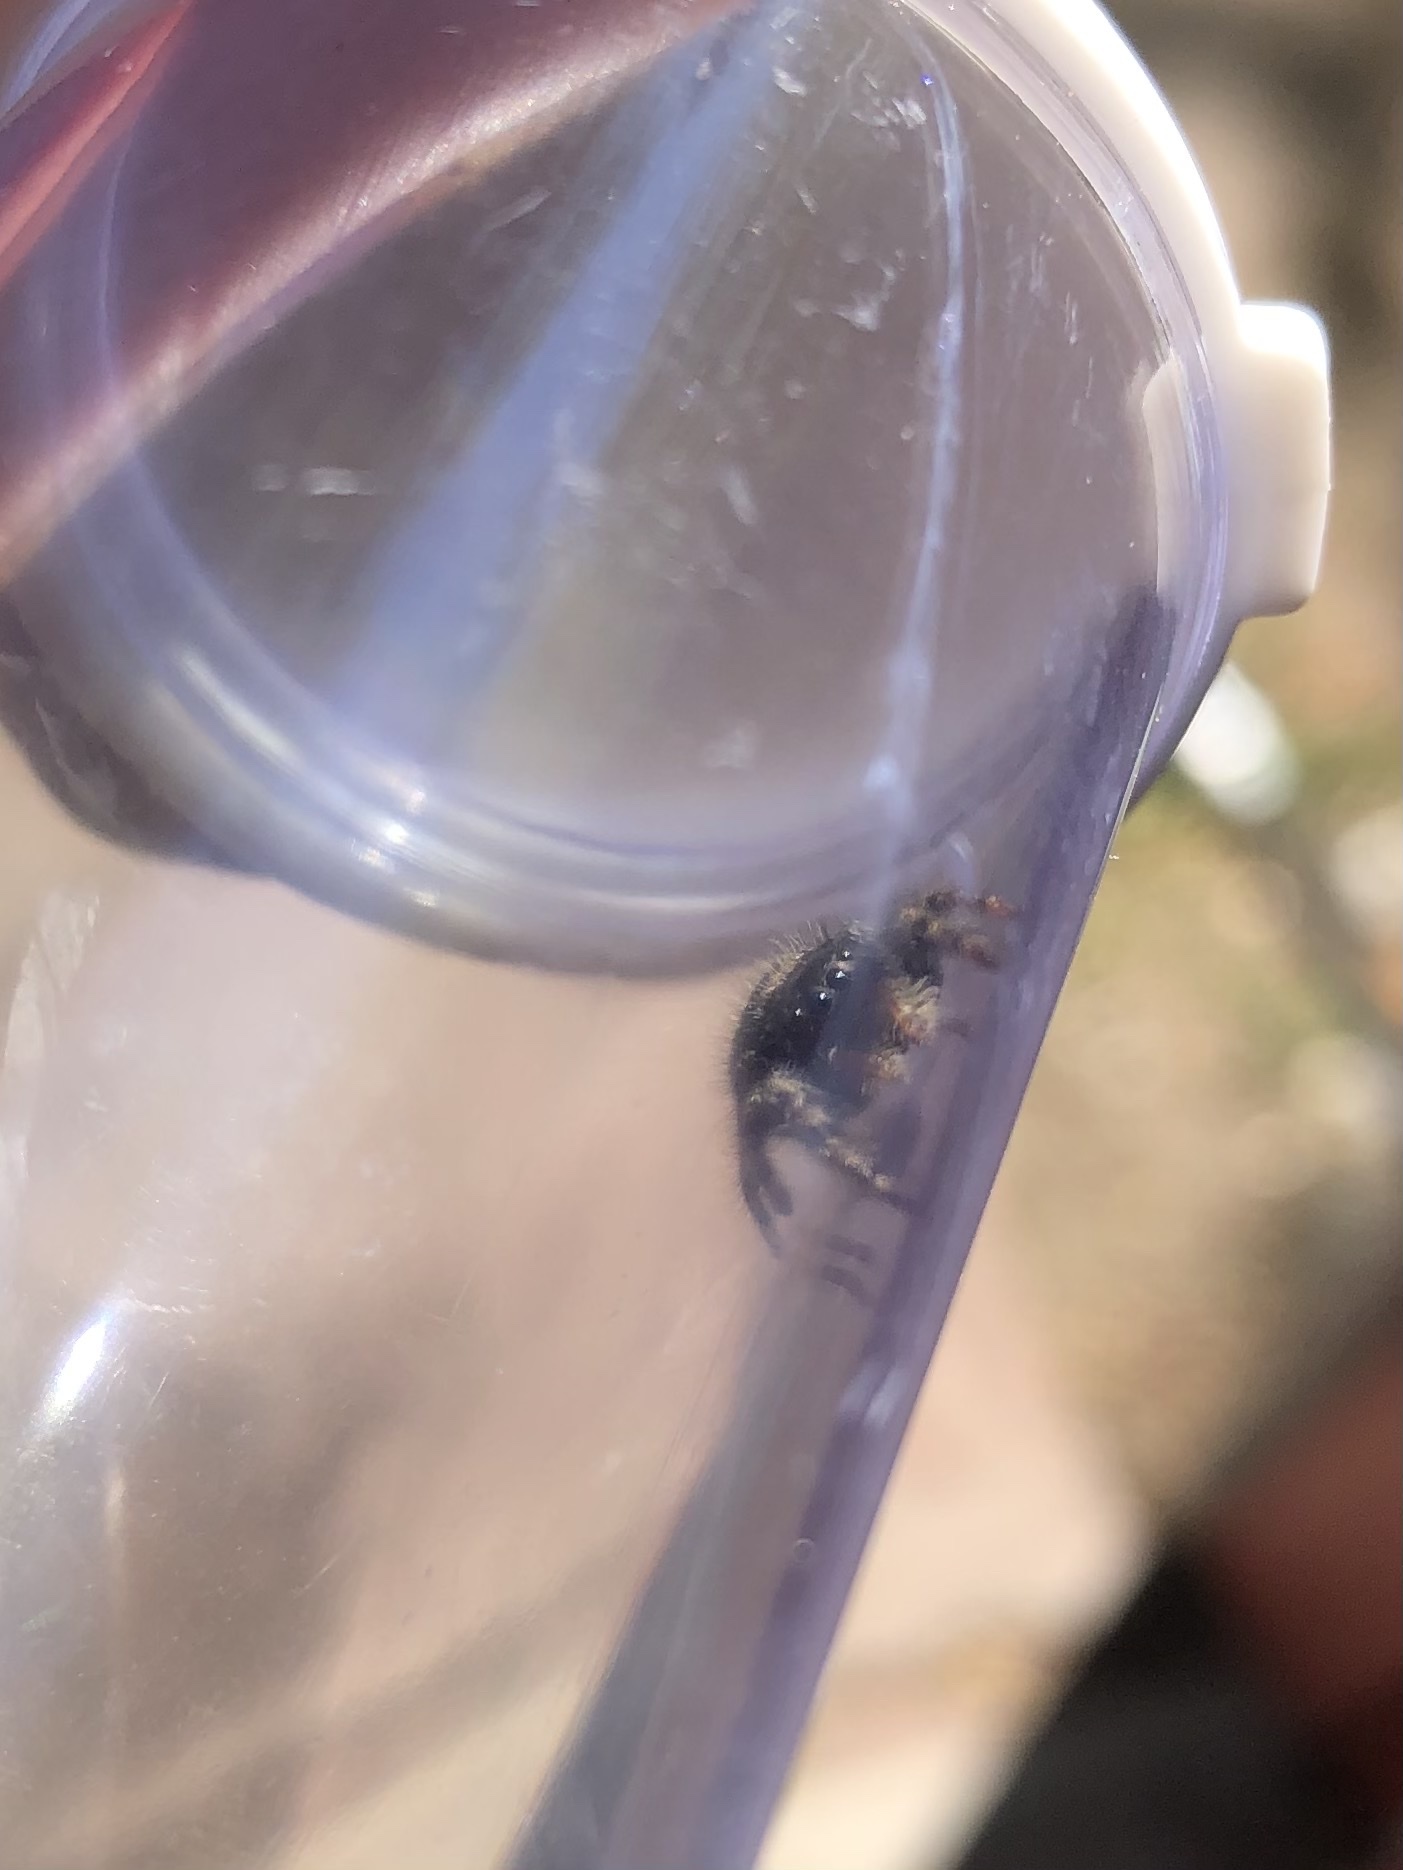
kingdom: Animalia
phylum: Arthropoda
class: Arachnida
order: Araneae
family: Salticidae
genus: Phidippus
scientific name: Phidippus audax
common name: Bold jumper
